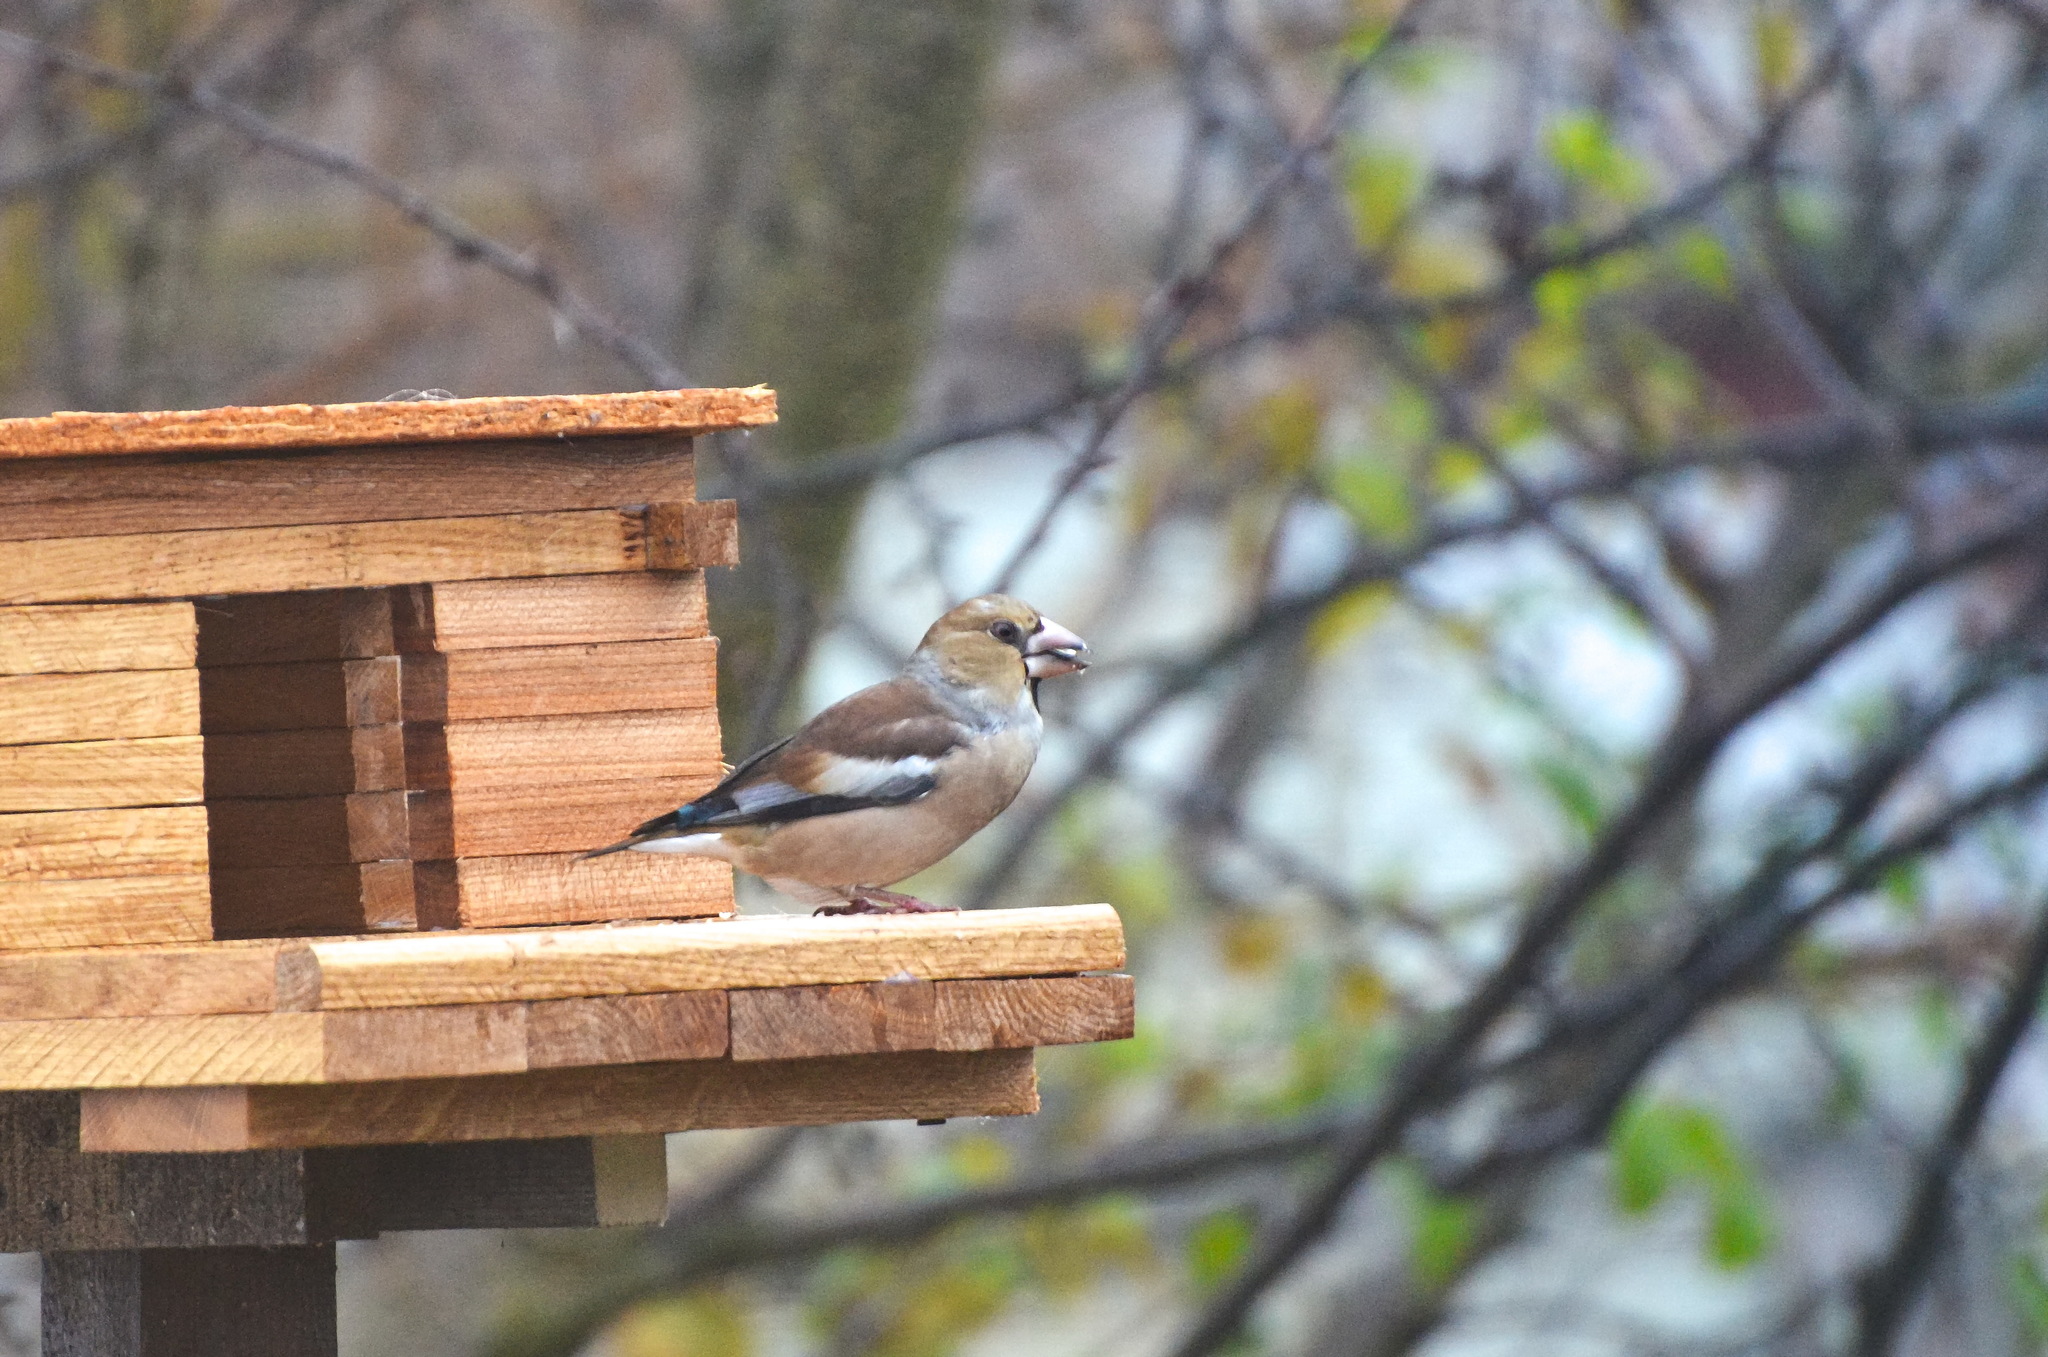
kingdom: Animalia
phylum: Chordata
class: Aves
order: Passeriformes
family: Fringillidae
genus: Coccothraustes
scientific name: Coccothraustes coccothraustes
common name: Hawfinch
